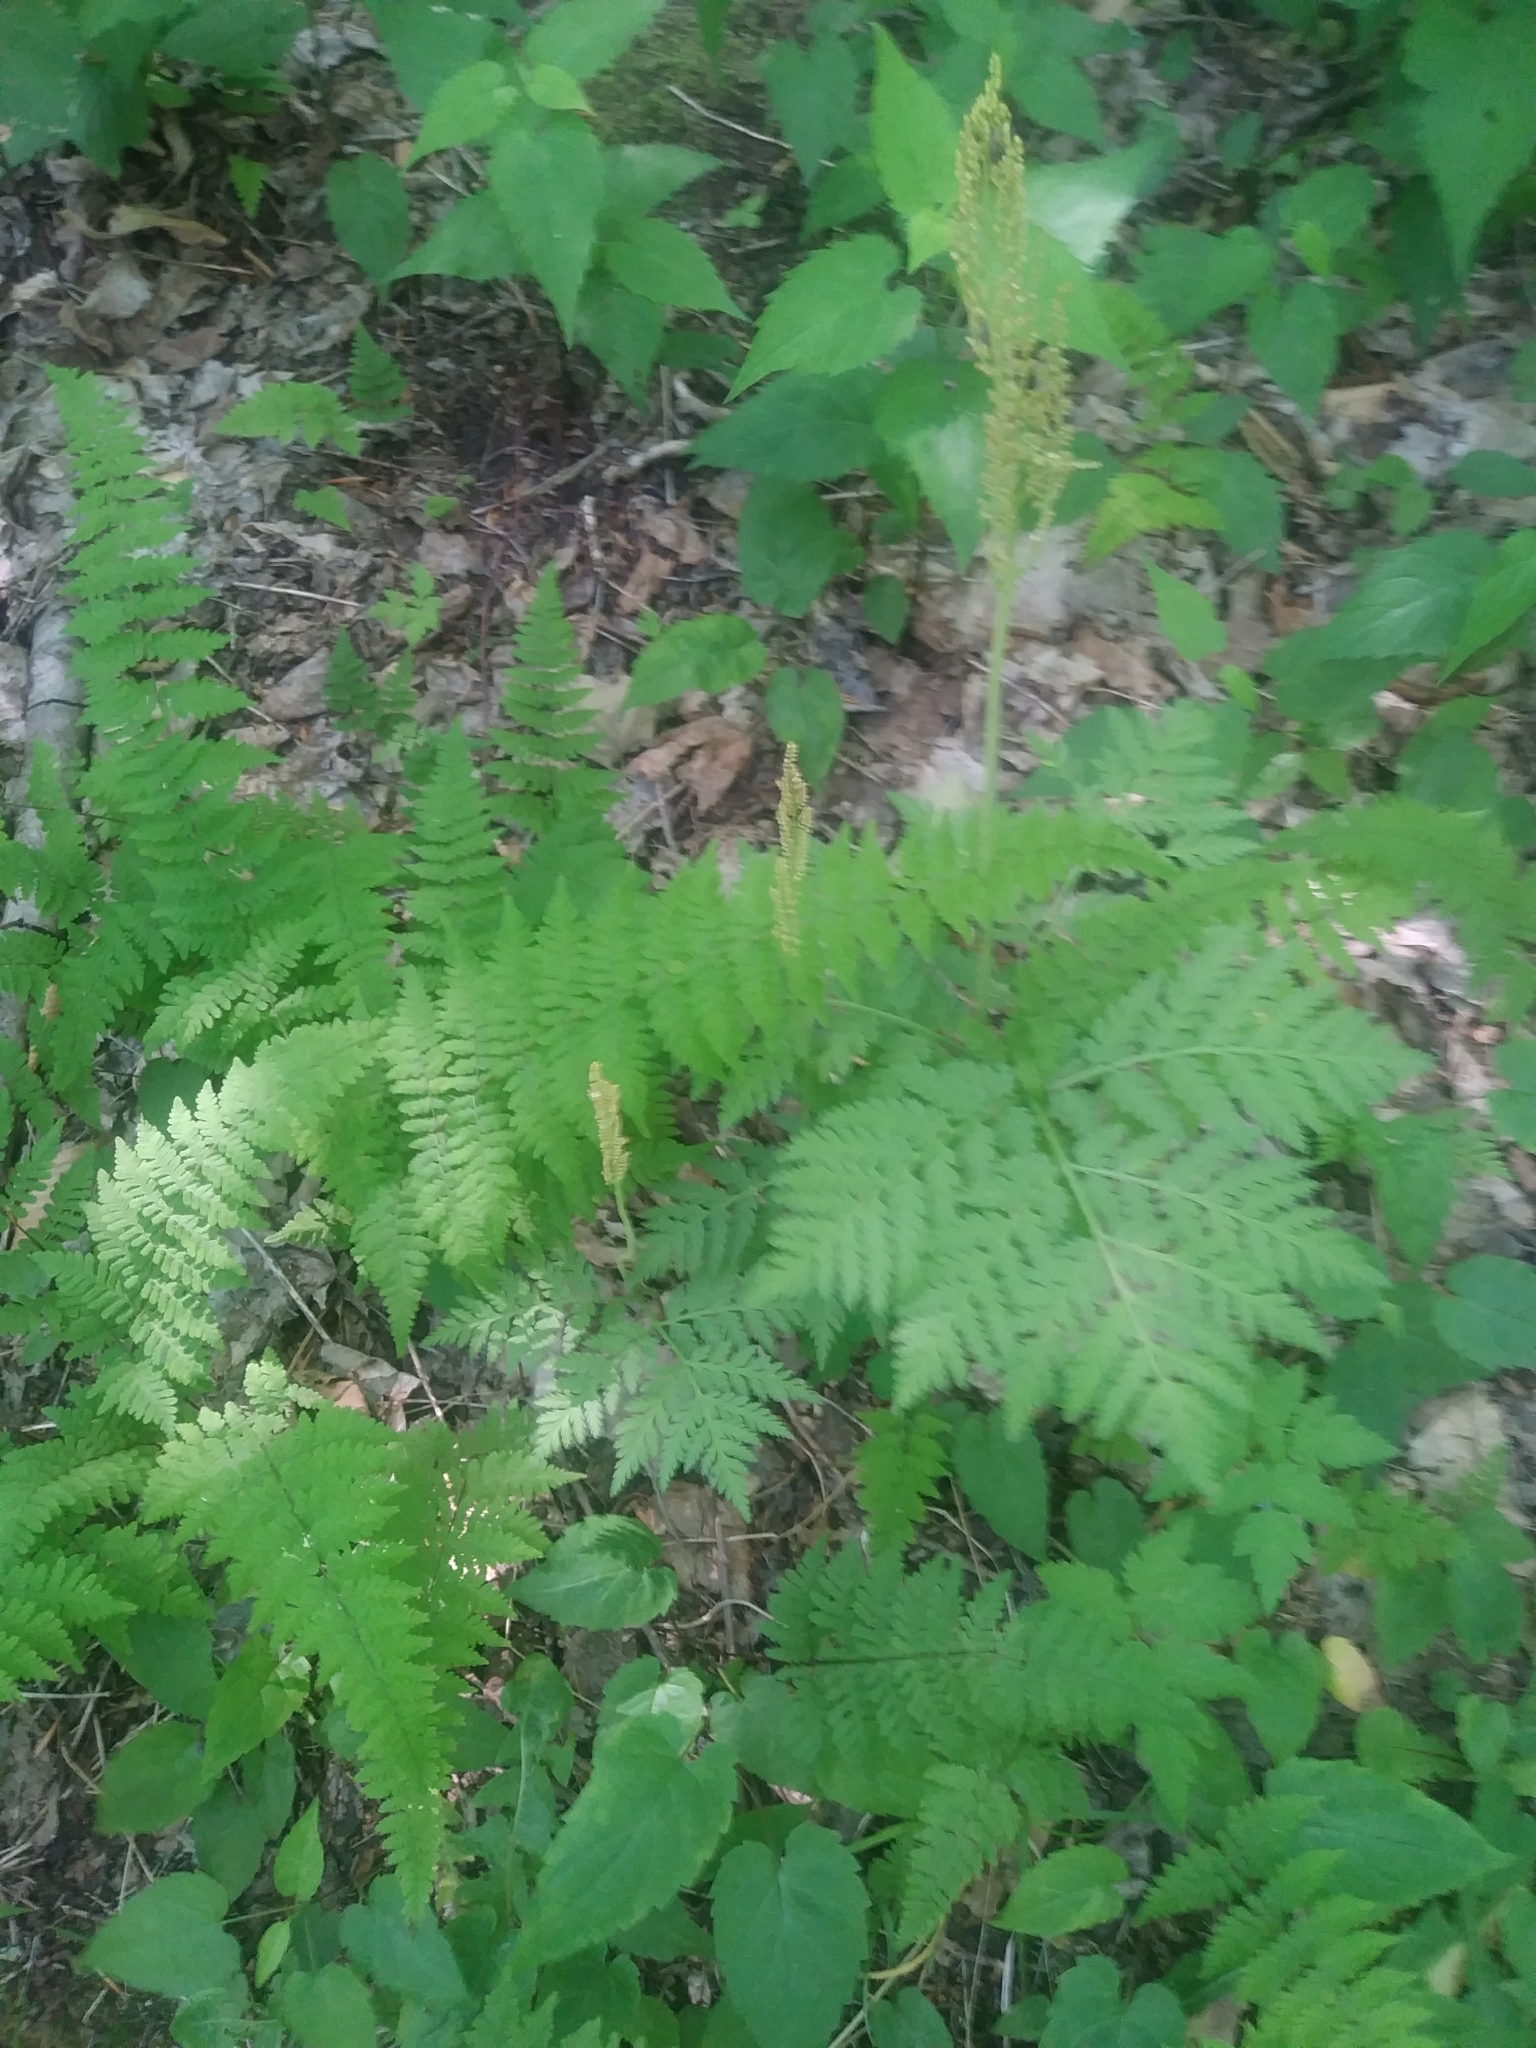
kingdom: Plantae
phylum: Tracheophyta
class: Polypodiopsida
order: Ophioglossales
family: Ophioglossaceae
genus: Botrypus
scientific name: Botrypus virginianus
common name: Common grapefern
